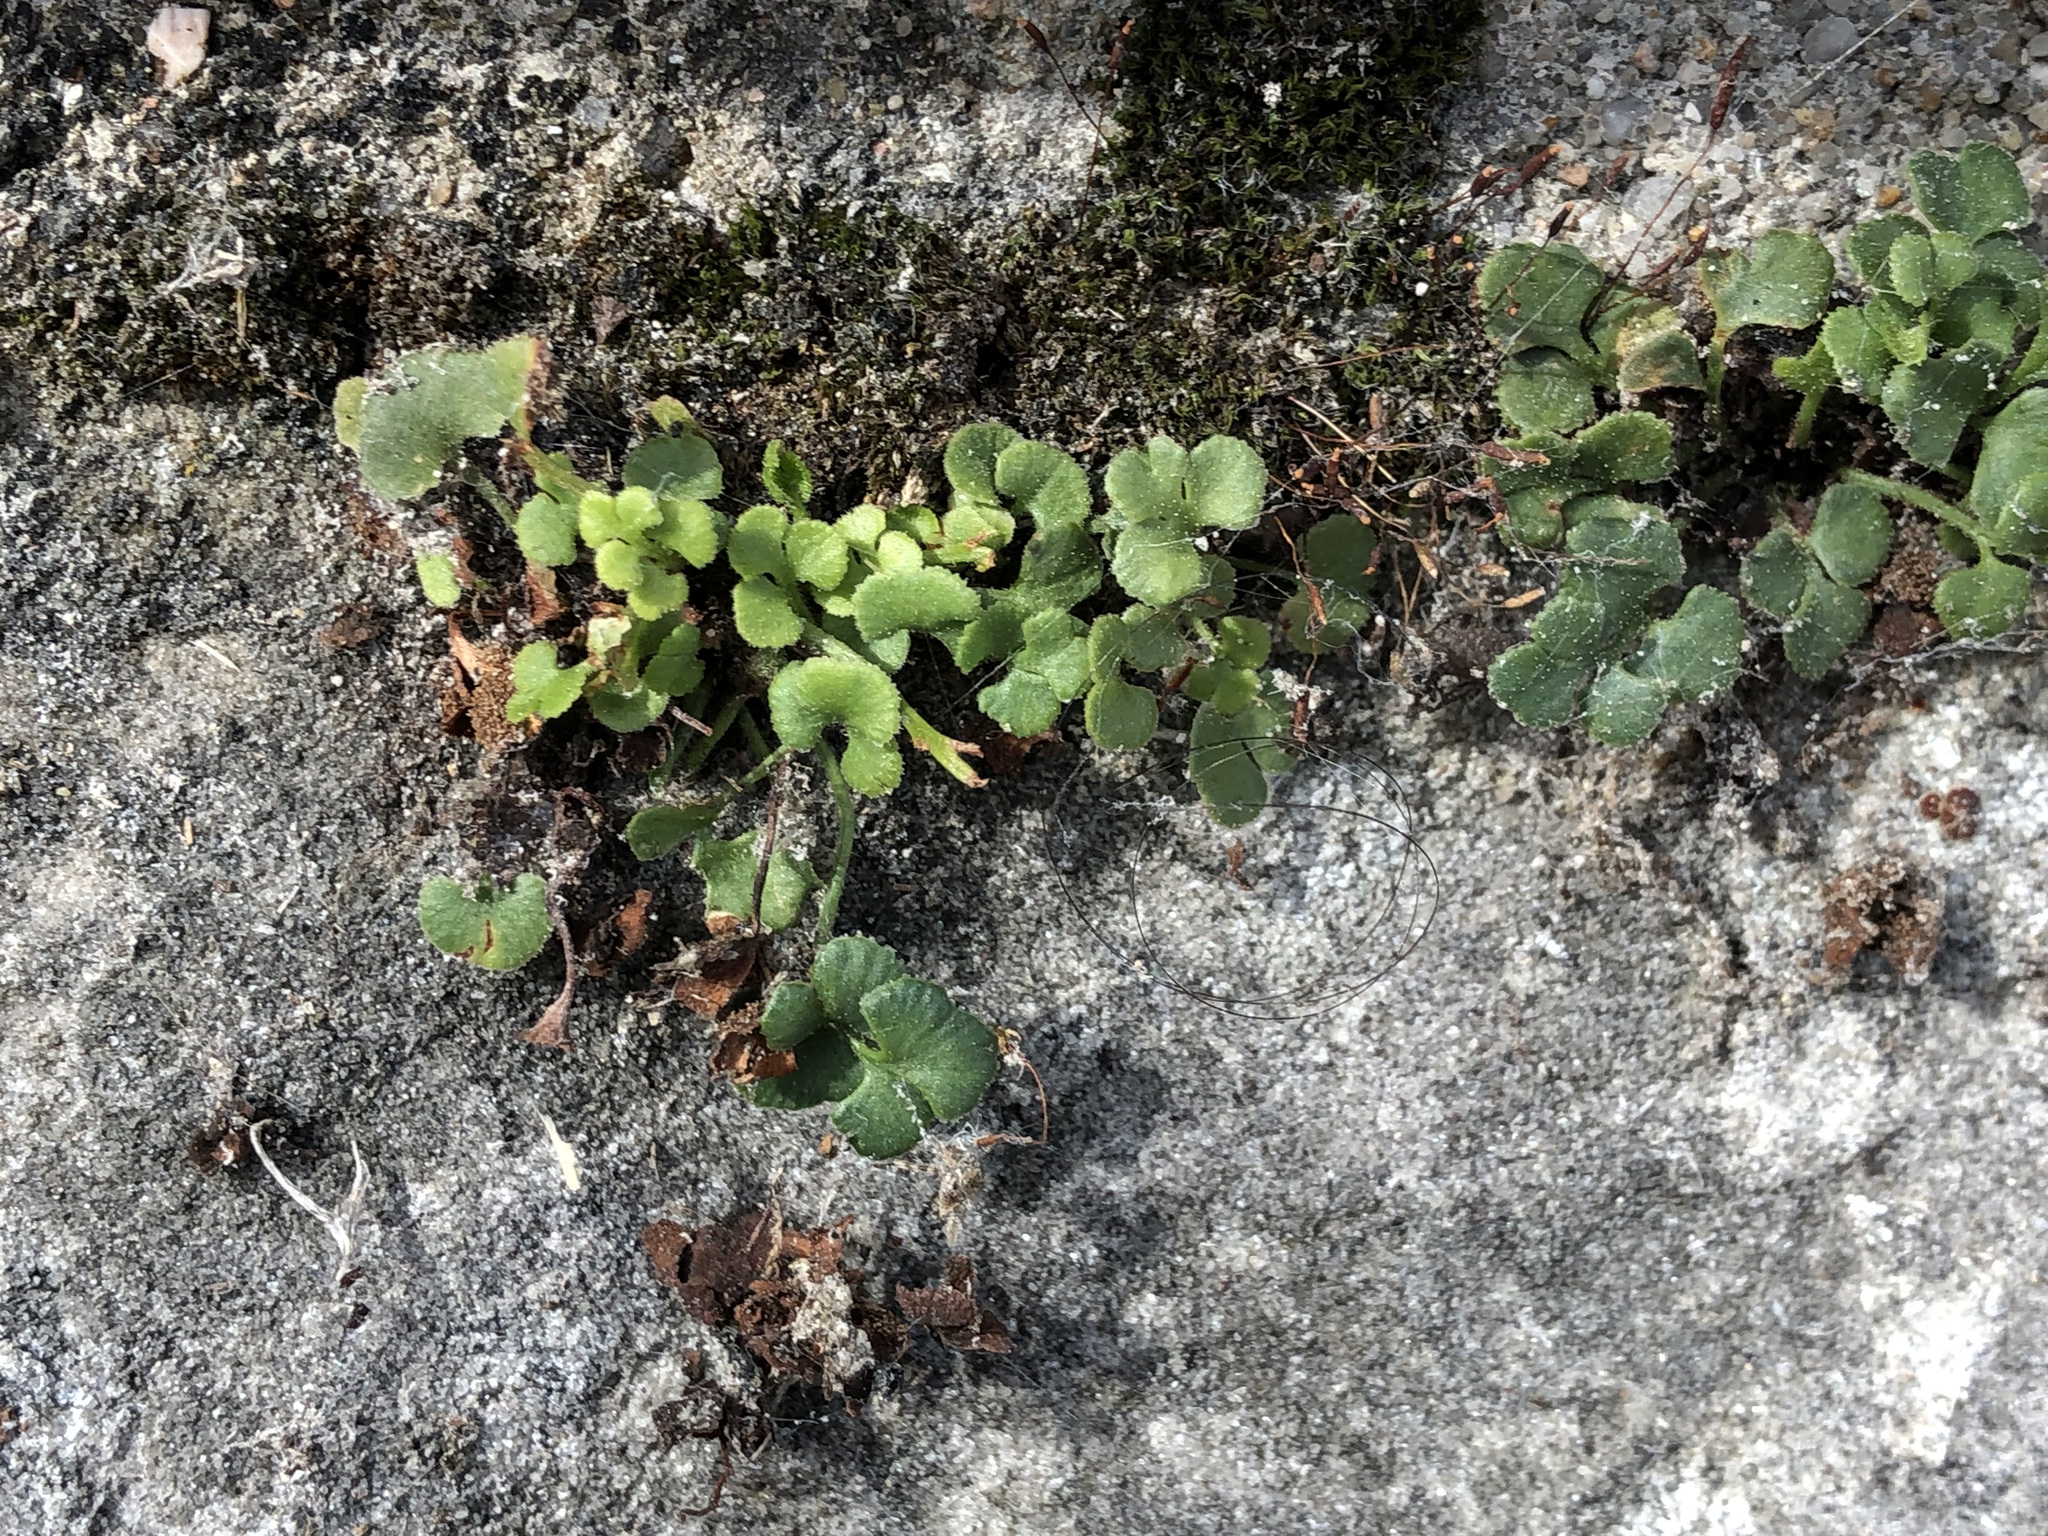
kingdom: Plantae
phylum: Tracheophyta
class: Polypodiopsida
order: Polypodiales
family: Aspleniaceae
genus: Asplenium
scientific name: Asplenium ruta-muraria
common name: Wall-rue
